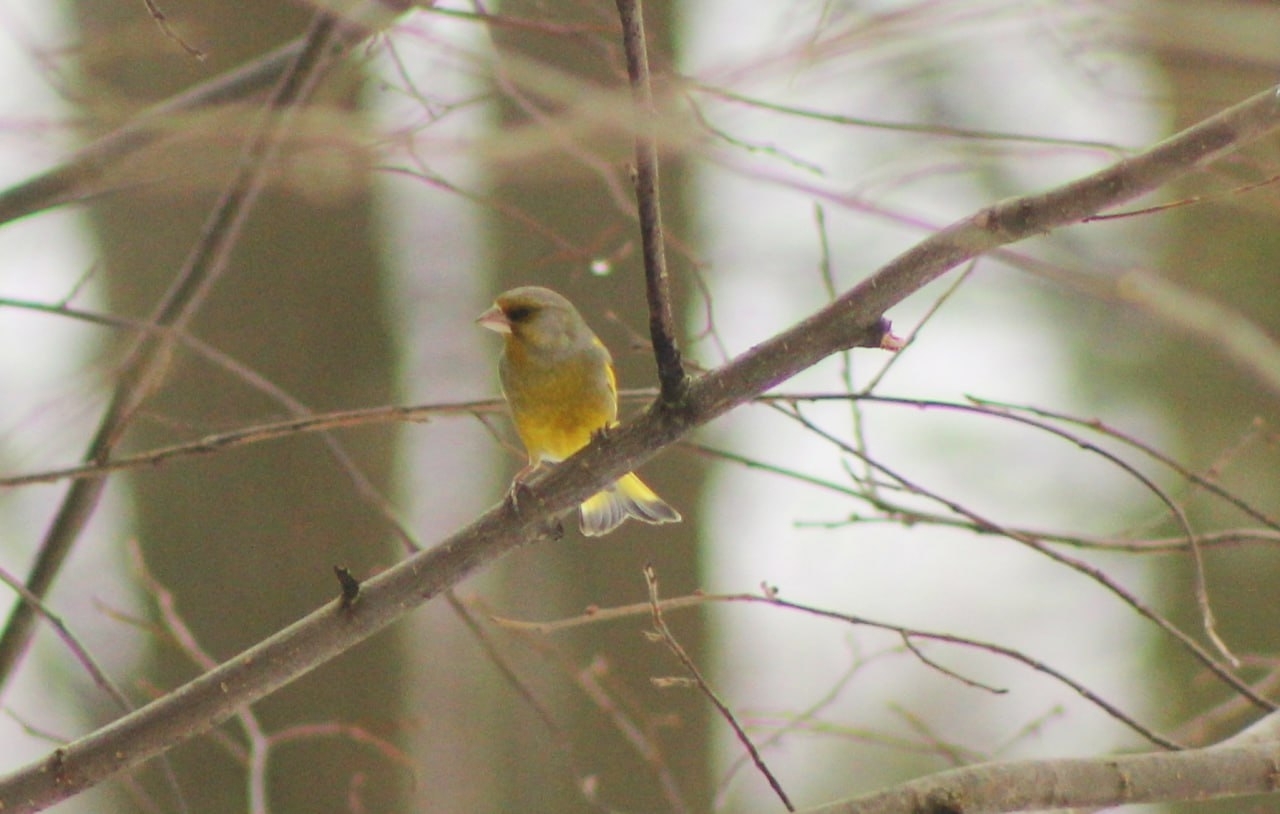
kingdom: Plantae
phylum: Tracheophyta
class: Liliopsida
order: Poales
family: Poaceae
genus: Chloris
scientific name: Chloris chloris
